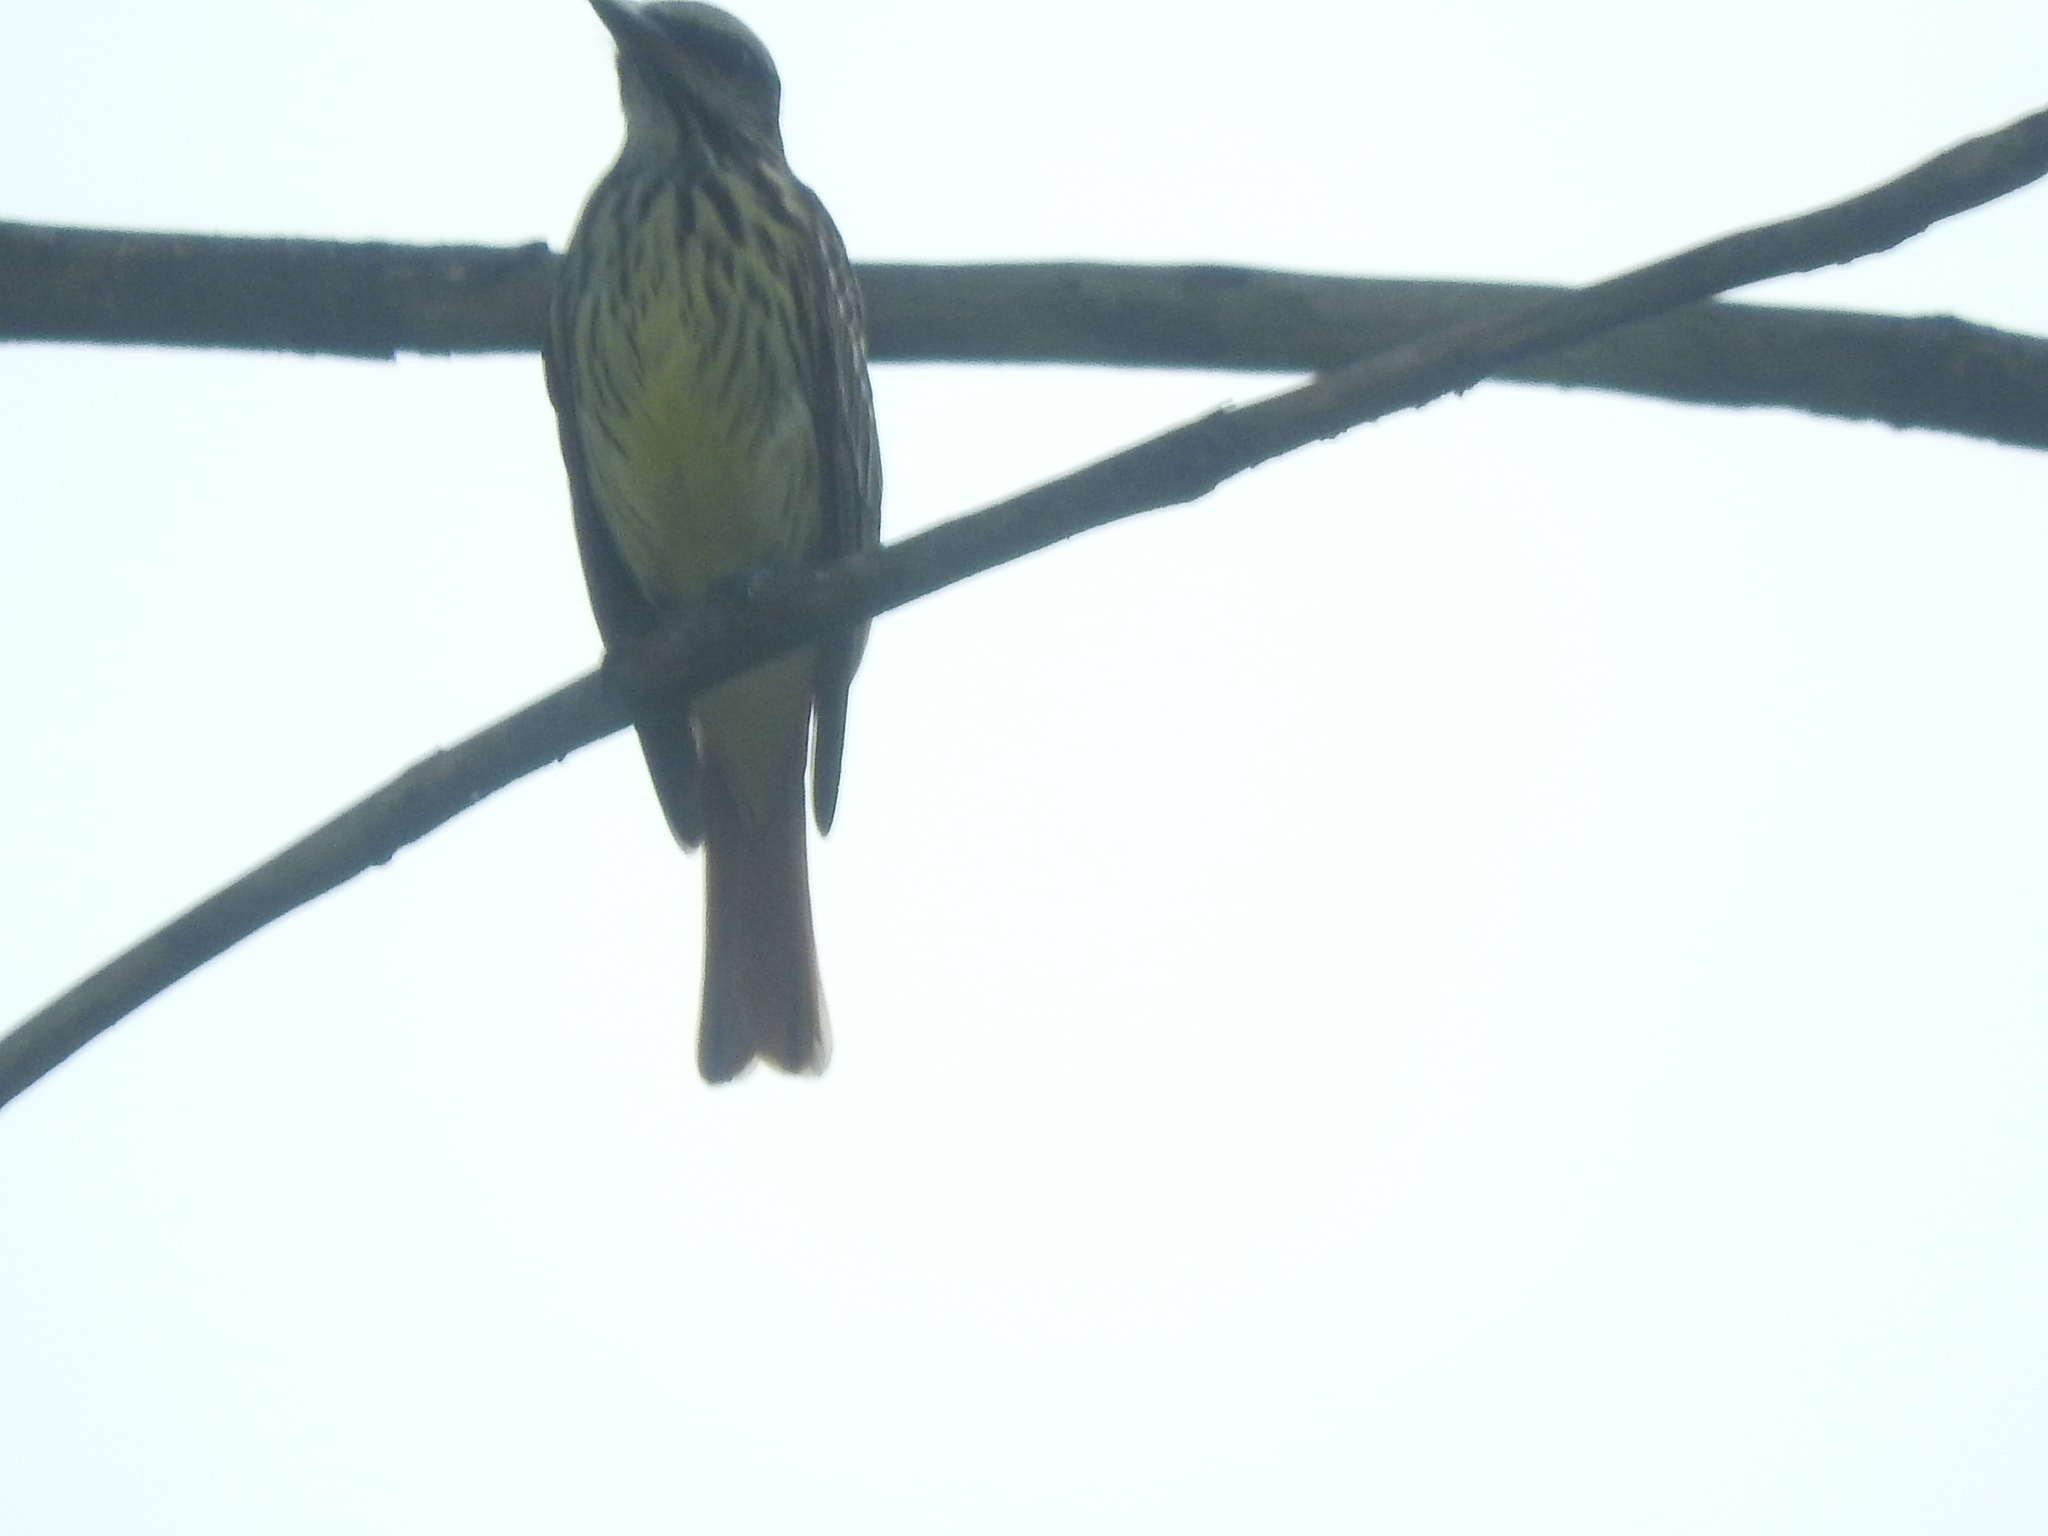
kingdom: Animalia
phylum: Chordata
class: Aves
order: Passeriformes
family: Tyrannidae
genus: Myiodynastes
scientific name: Myiodynastes luteiventris
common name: Sulphur-bellied flycatcher
